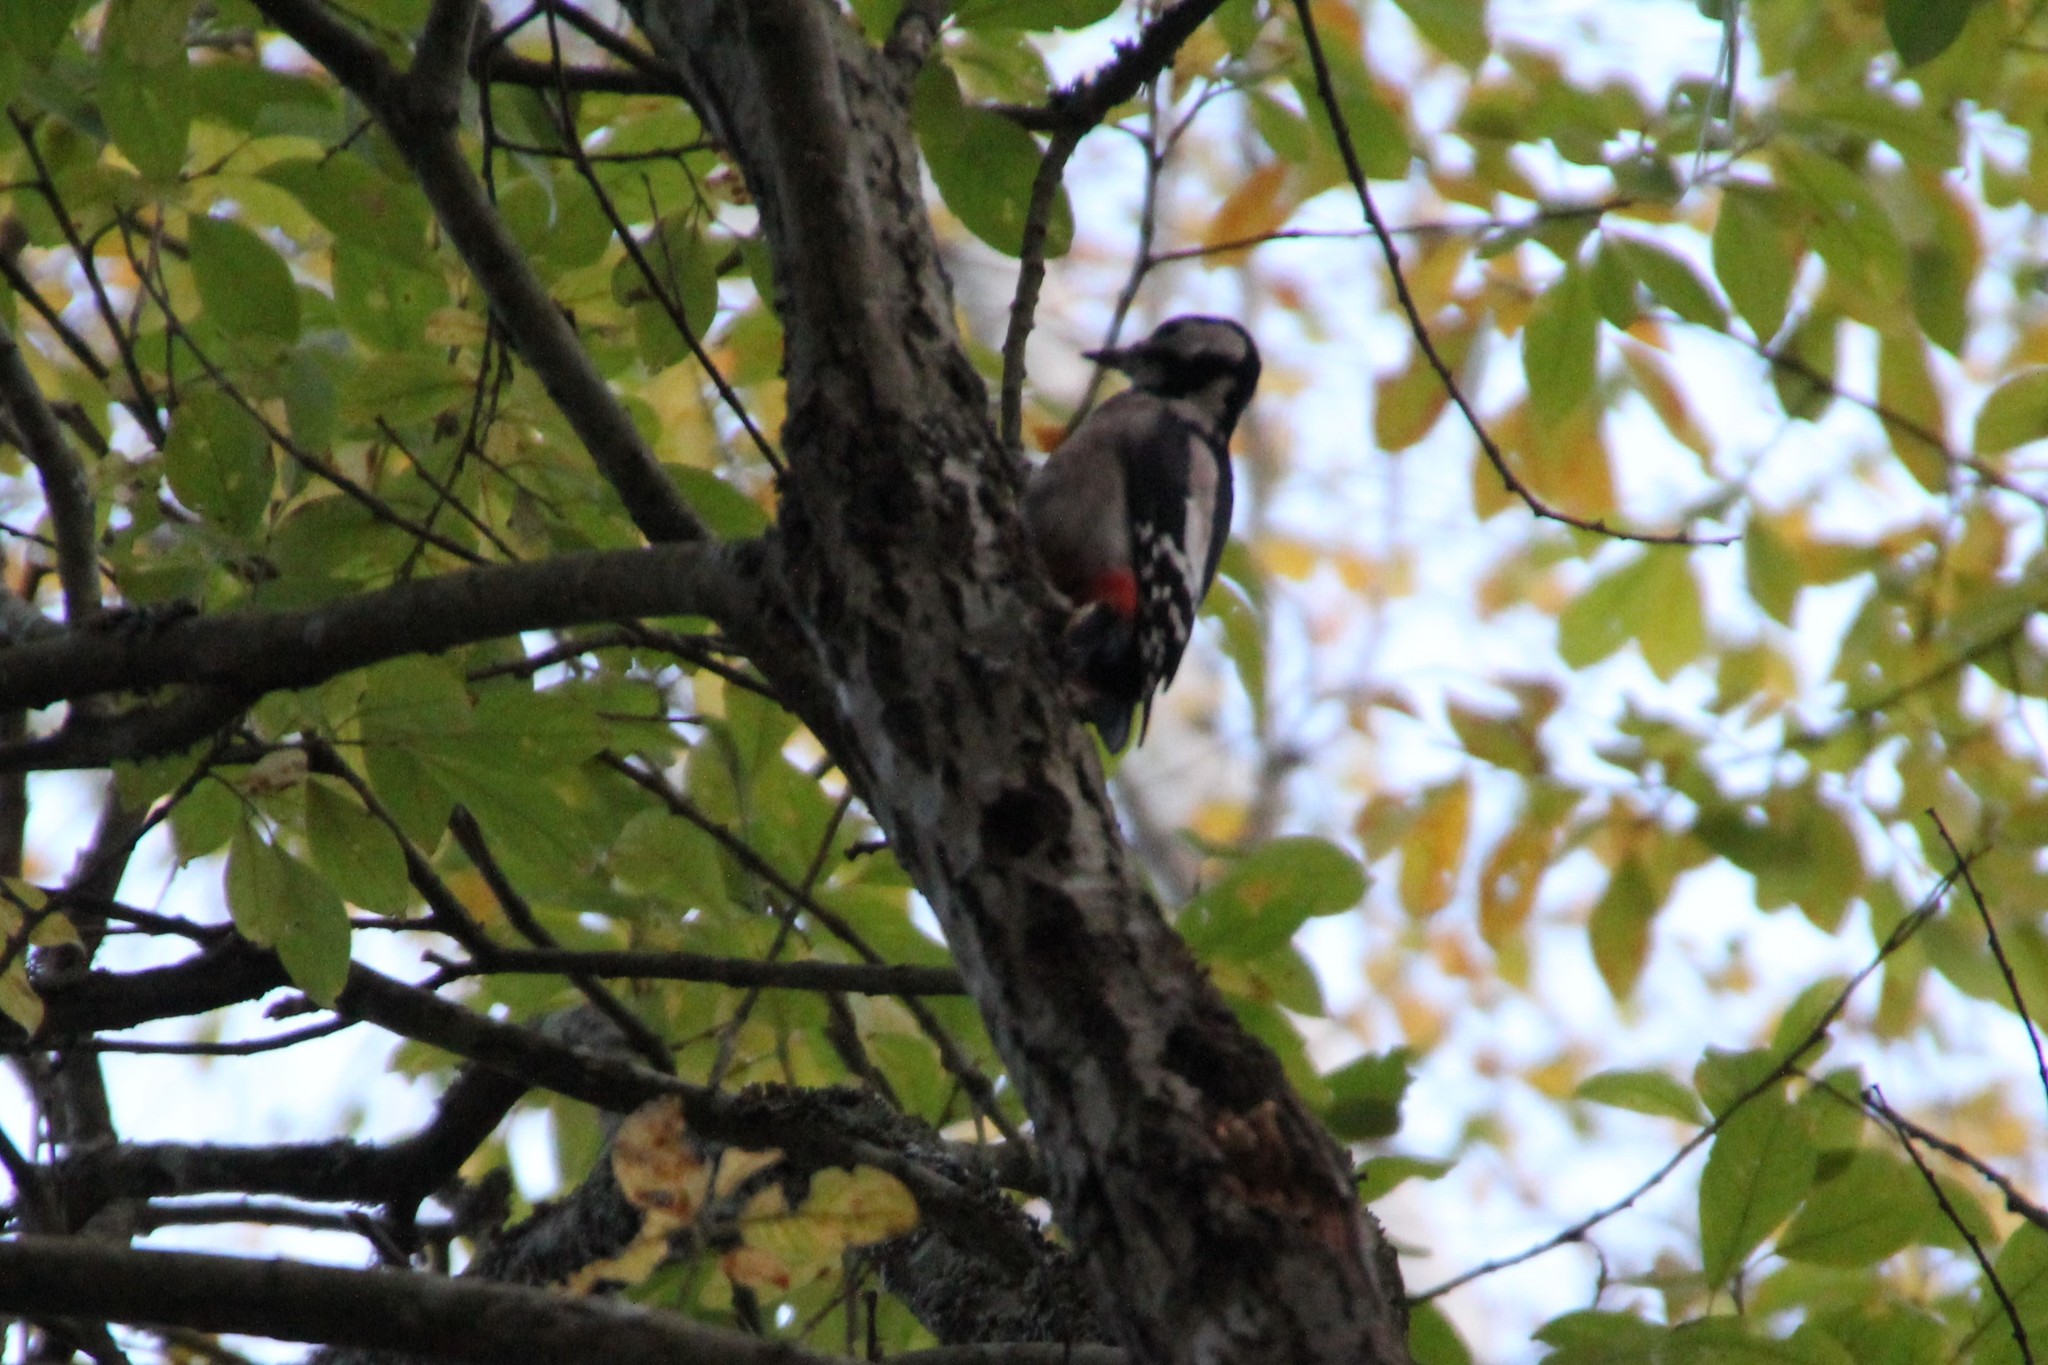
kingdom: Animalia
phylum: Chordata
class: Aves
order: Piciformes
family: Picidae
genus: Dendrocopos
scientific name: Dendrocopos major
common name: Great spotted woodpecker
